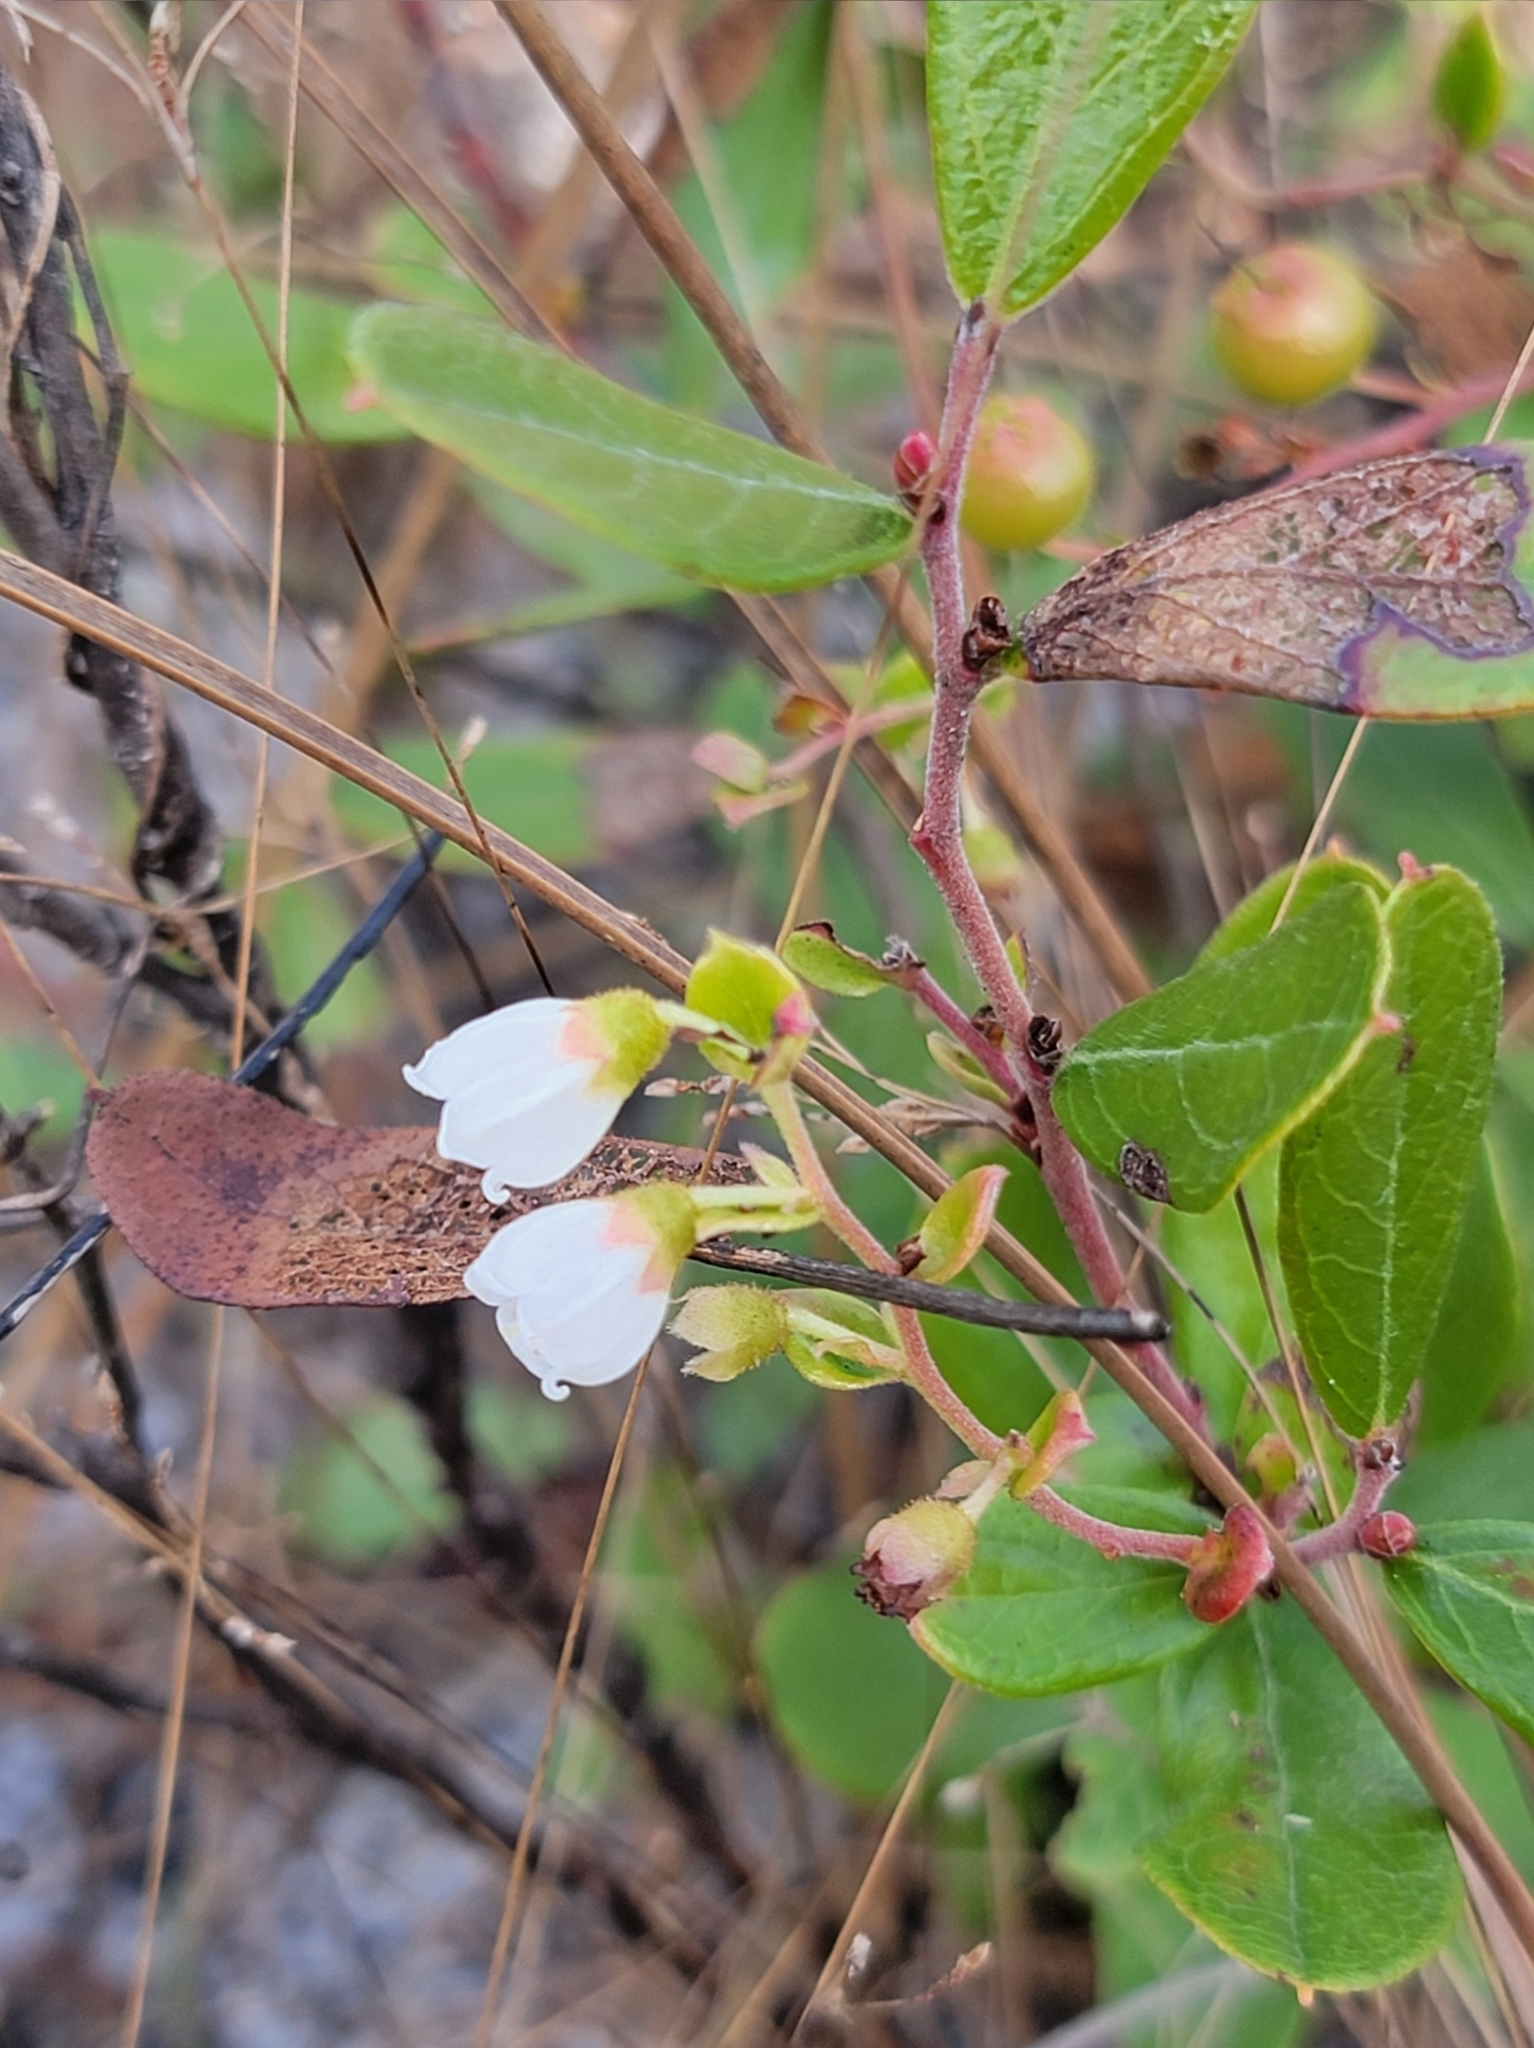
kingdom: Plantae
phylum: Tracheophyta
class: Magnoliopsida
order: Ericales
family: Ericaceae
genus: Gaylussacia
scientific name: Gaylussacia dumosa
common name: Dwarf huckleberry
